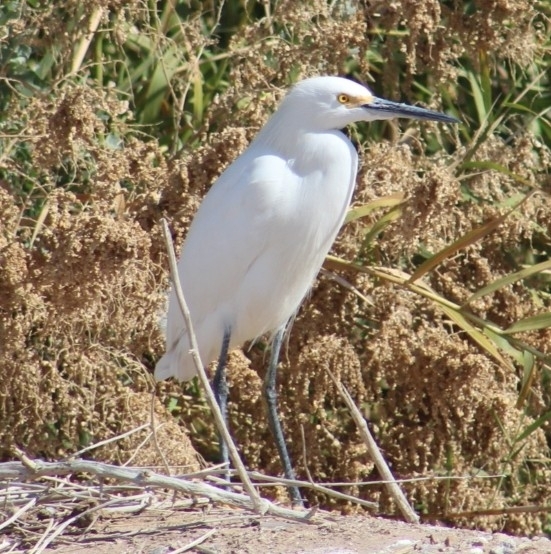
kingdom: Animalia
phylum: Chordata
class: Aves
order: Pelecaniformes
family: Ardeidae
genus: Egretta
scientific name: Egretta thula
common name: Snowy egret
